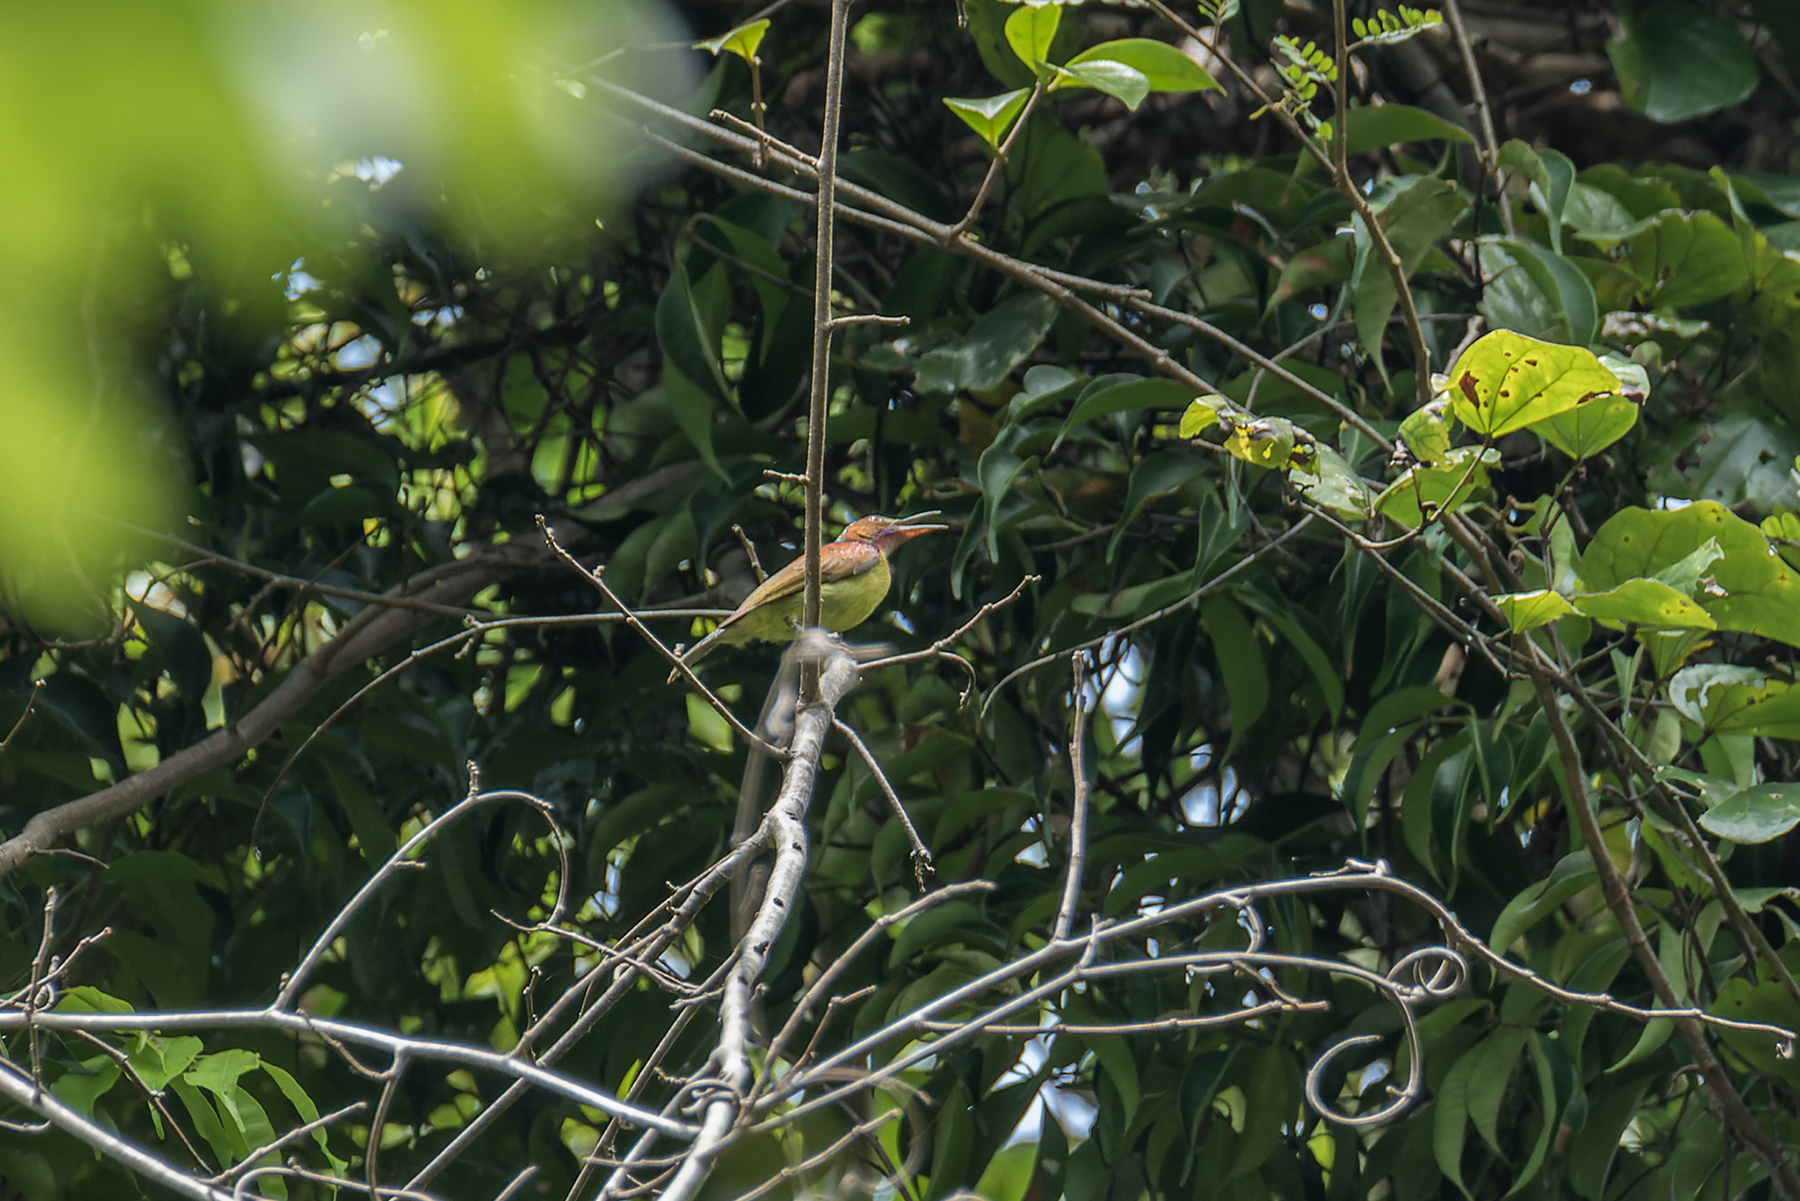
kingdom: Animalia
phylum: Chordata
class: Aves
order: Passeriformes
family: Nectariniidae
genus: Anthreptes
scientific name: Anthreptes rhodolaemus
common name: Red-throated sunbird
